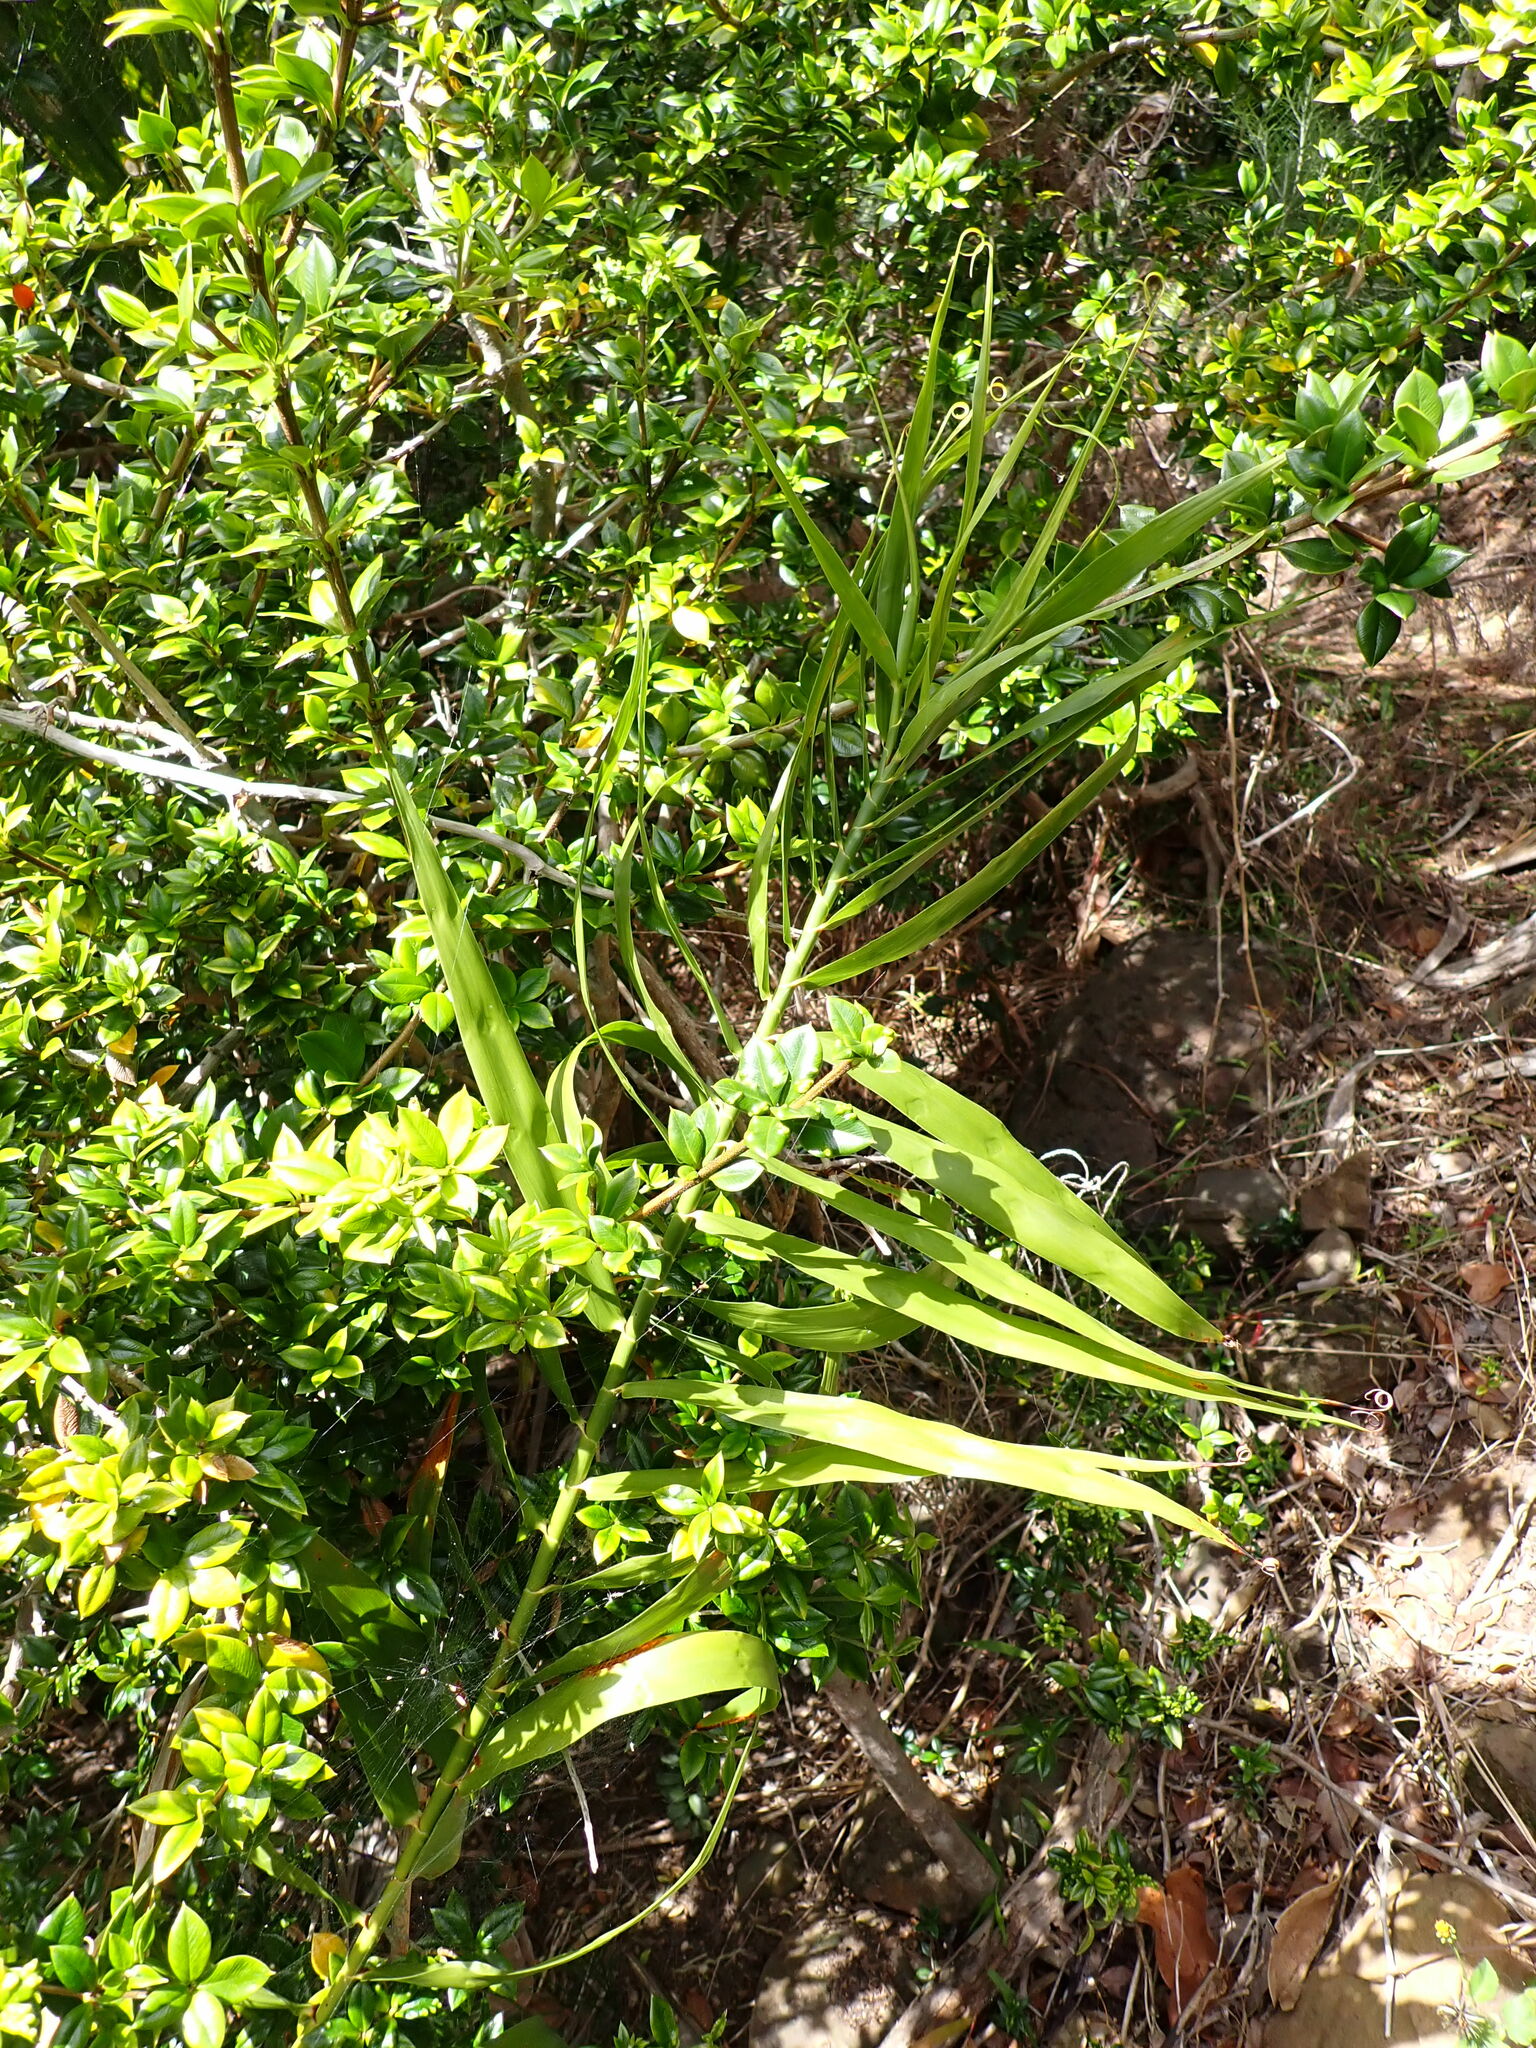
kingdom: Plantae
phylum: Tracheophyta
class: Liliopsida
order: Poales
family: Flagellariaceae
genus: Flagellaria
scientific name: Flagellaria indica
